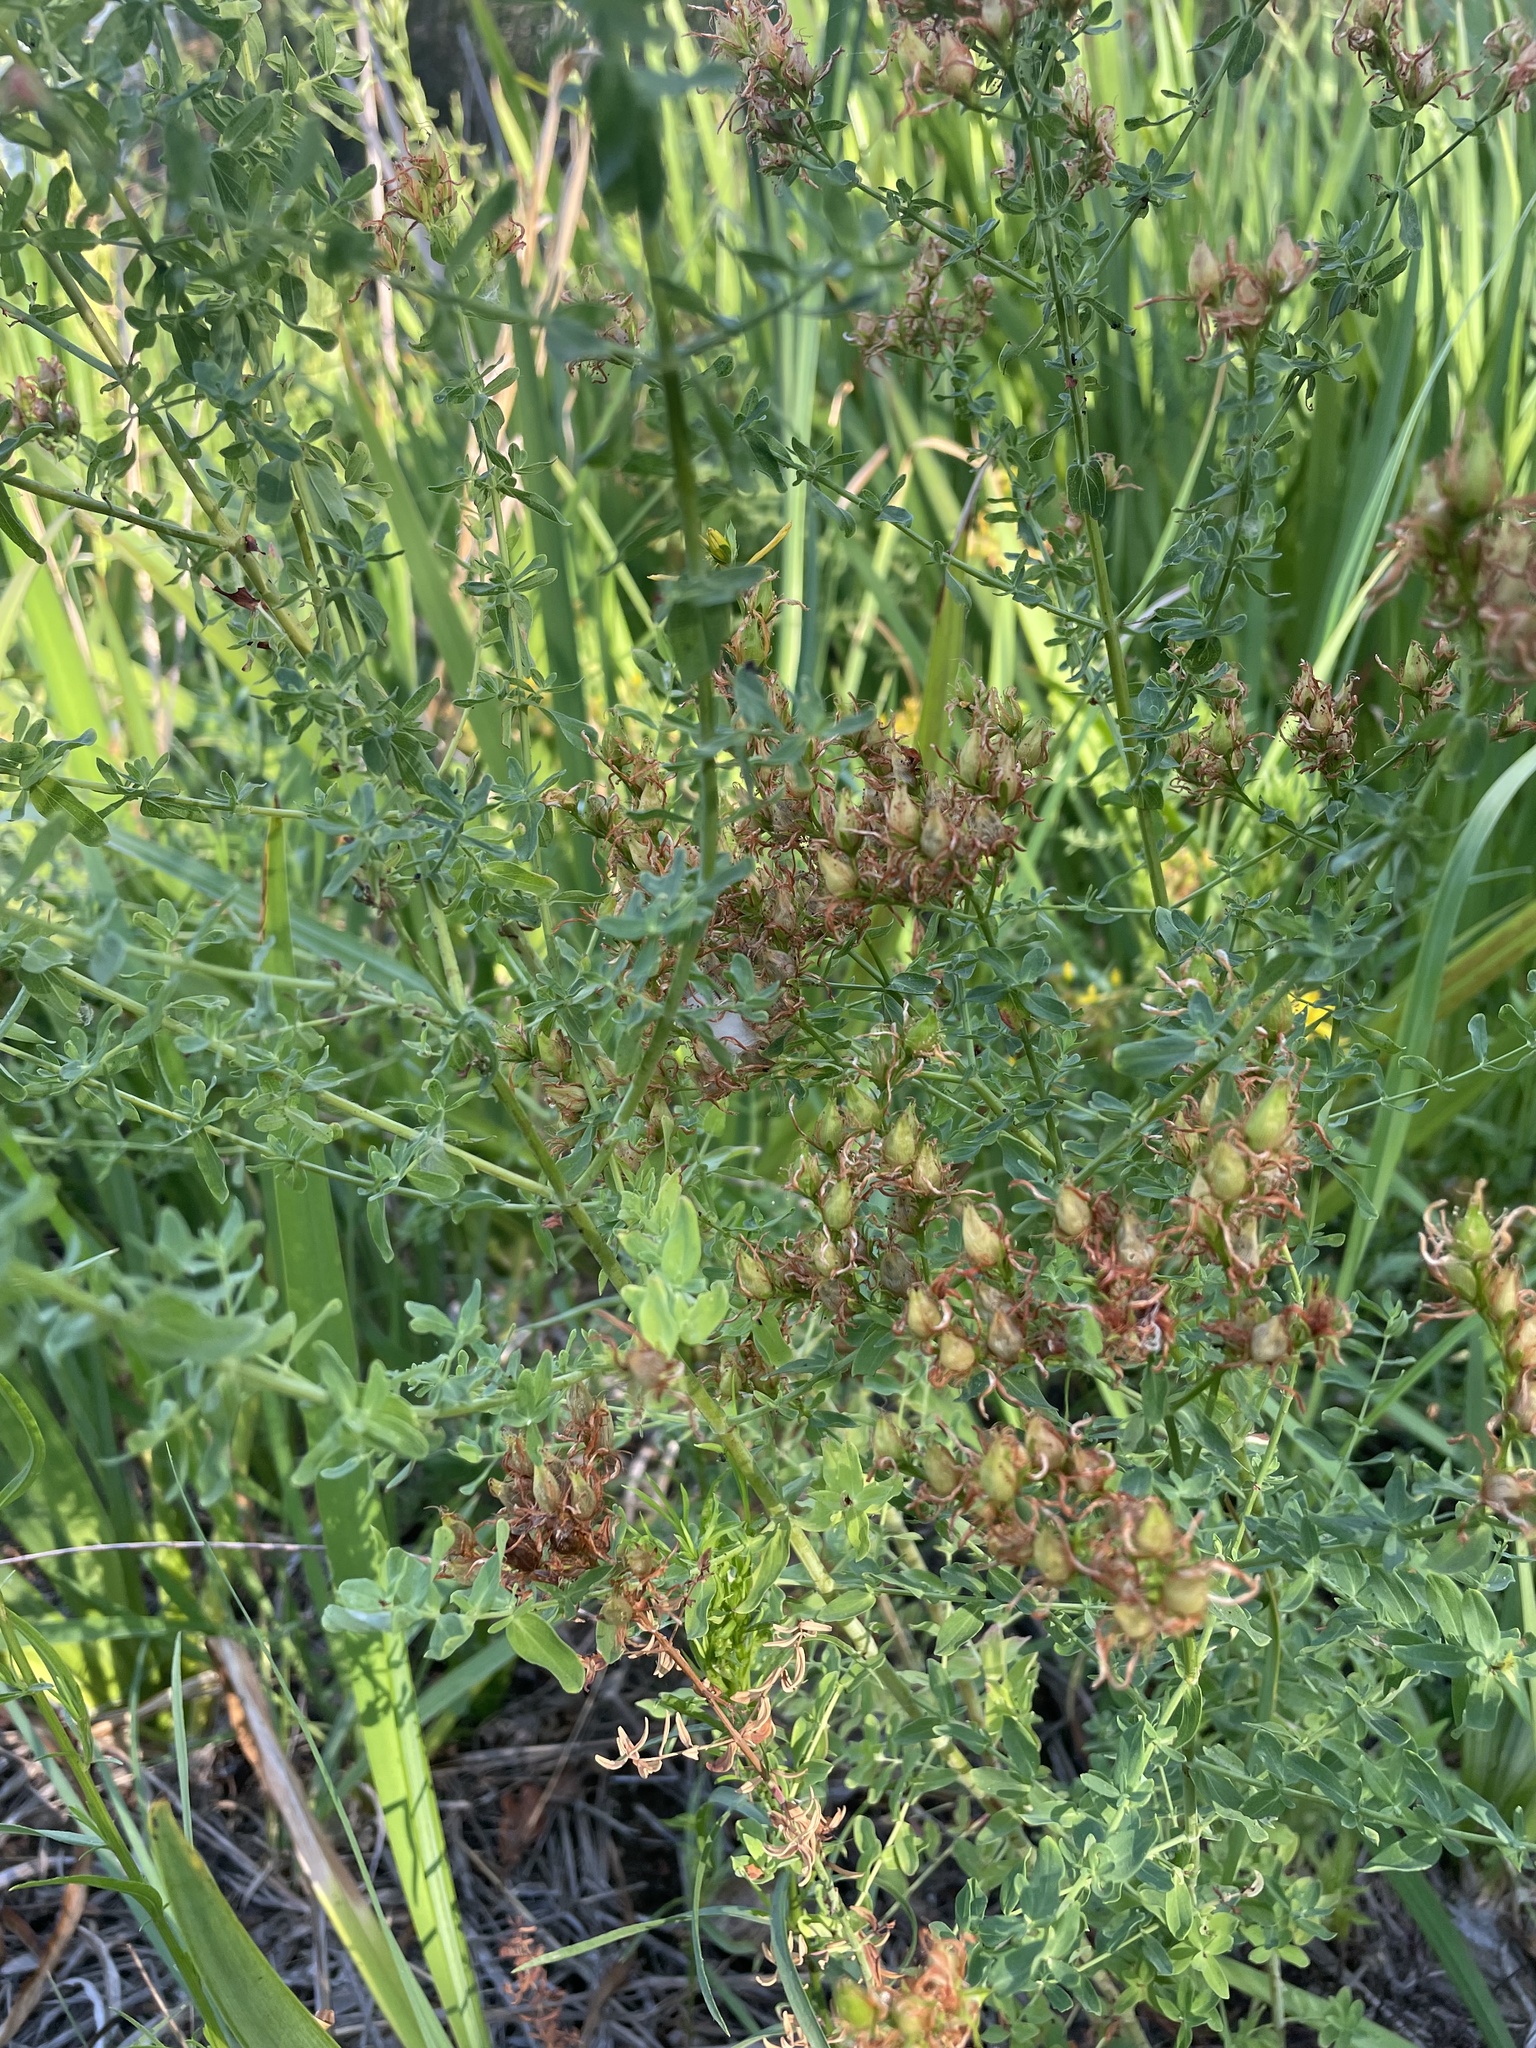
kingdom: Plantae
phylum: Tracheophyta
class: Magnoliopsida
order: Malpighiales
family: Hypericaceae
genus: Hypericum
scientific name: Hypericum perforatum
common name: Common st. johnswort
